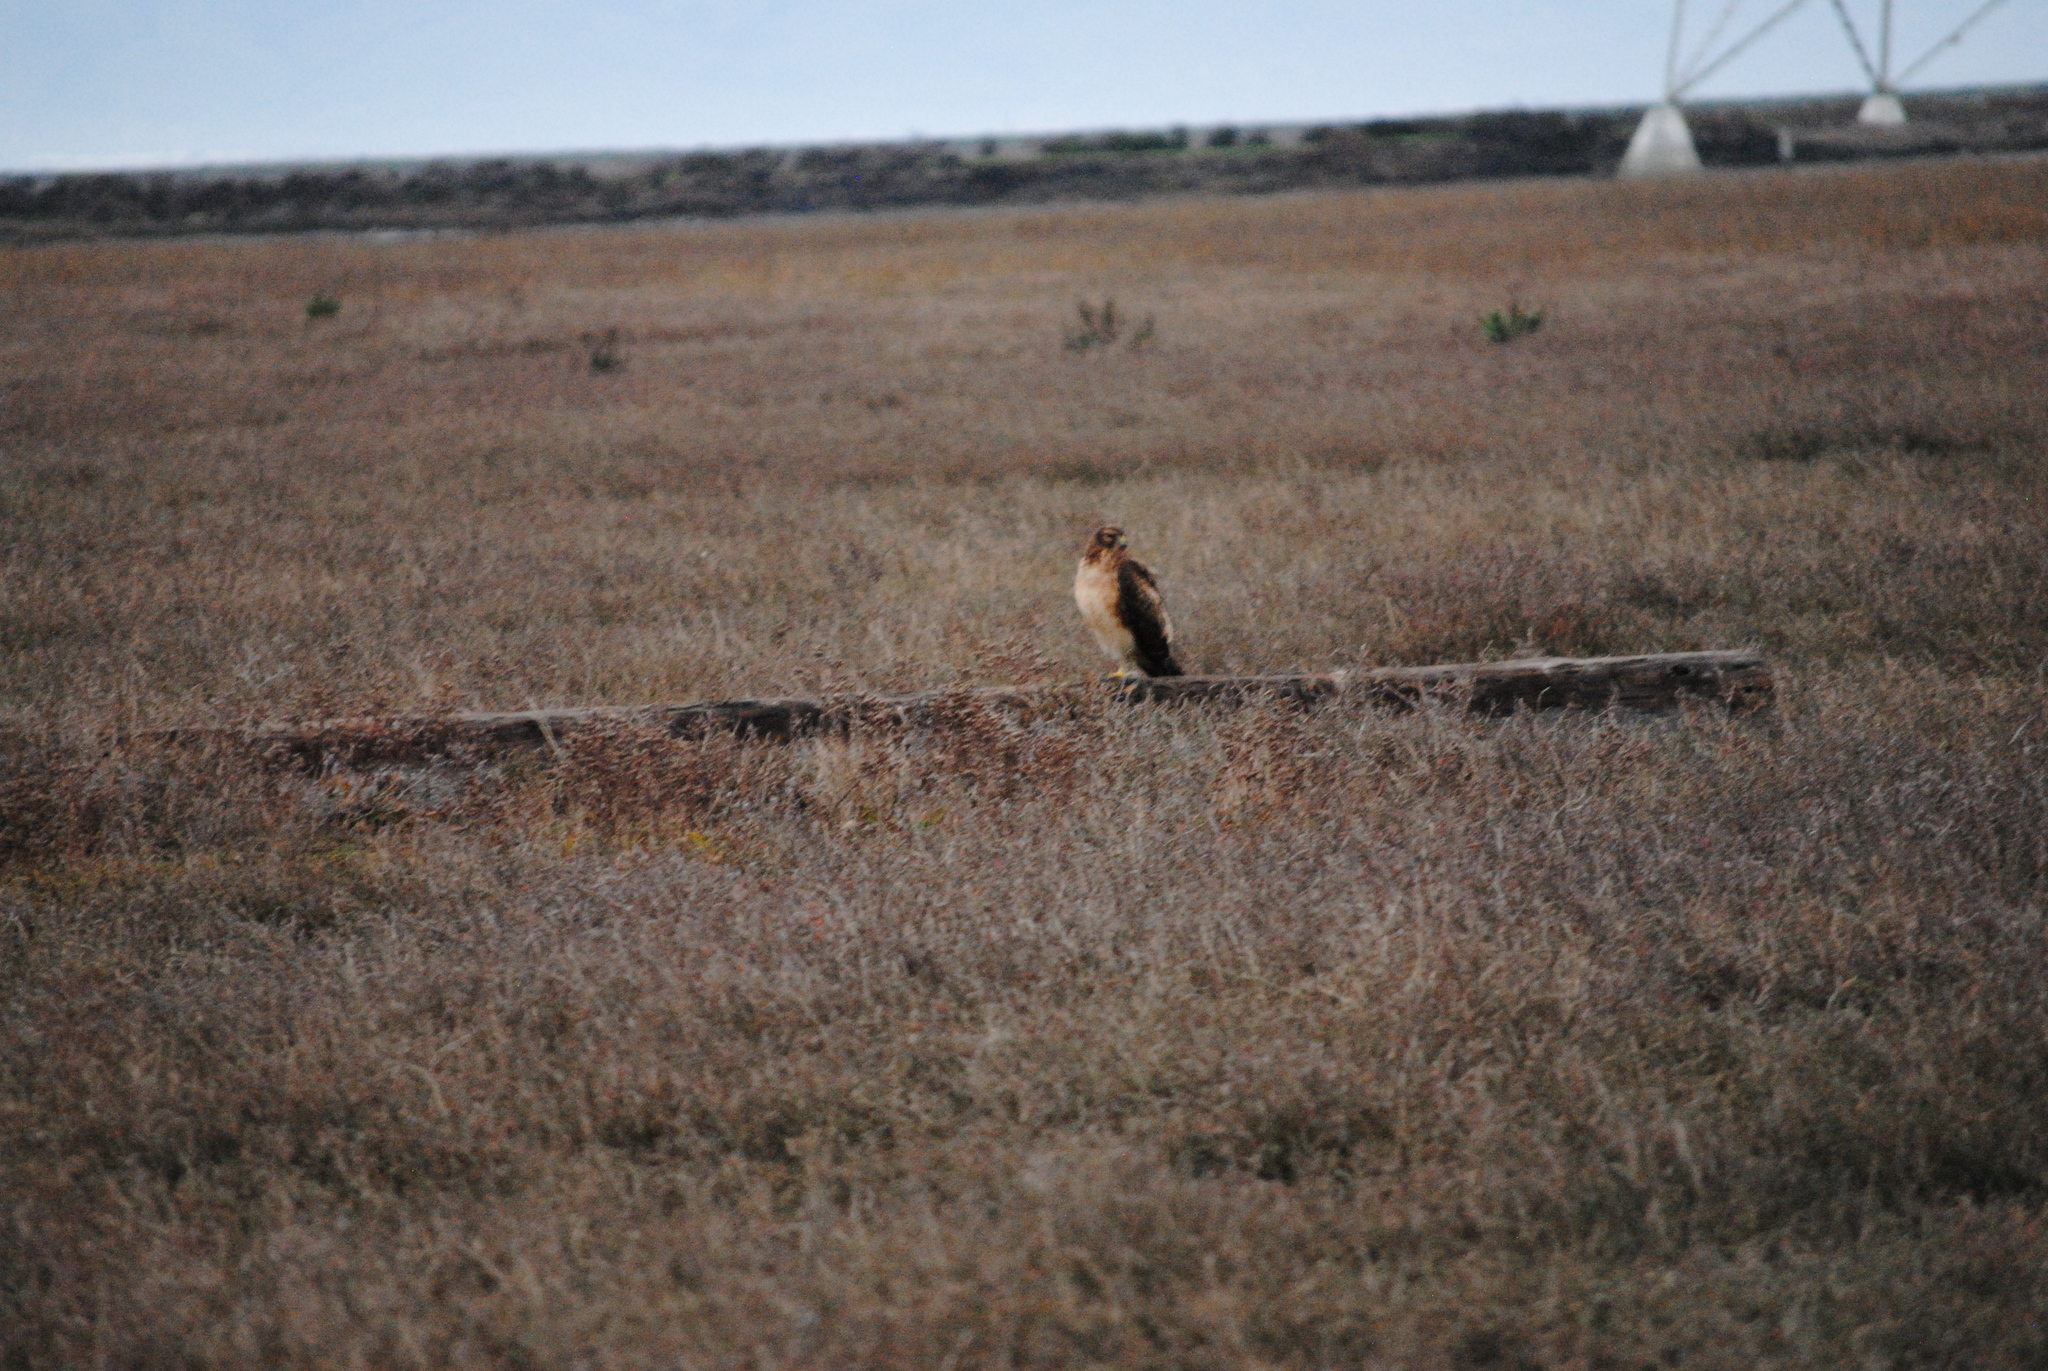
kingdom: Animalia
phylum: Chordata
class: Aves
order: Accipitriformes
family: Accipitridae
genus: Circus
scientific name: Circus cyaneus
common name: Hen harrier
